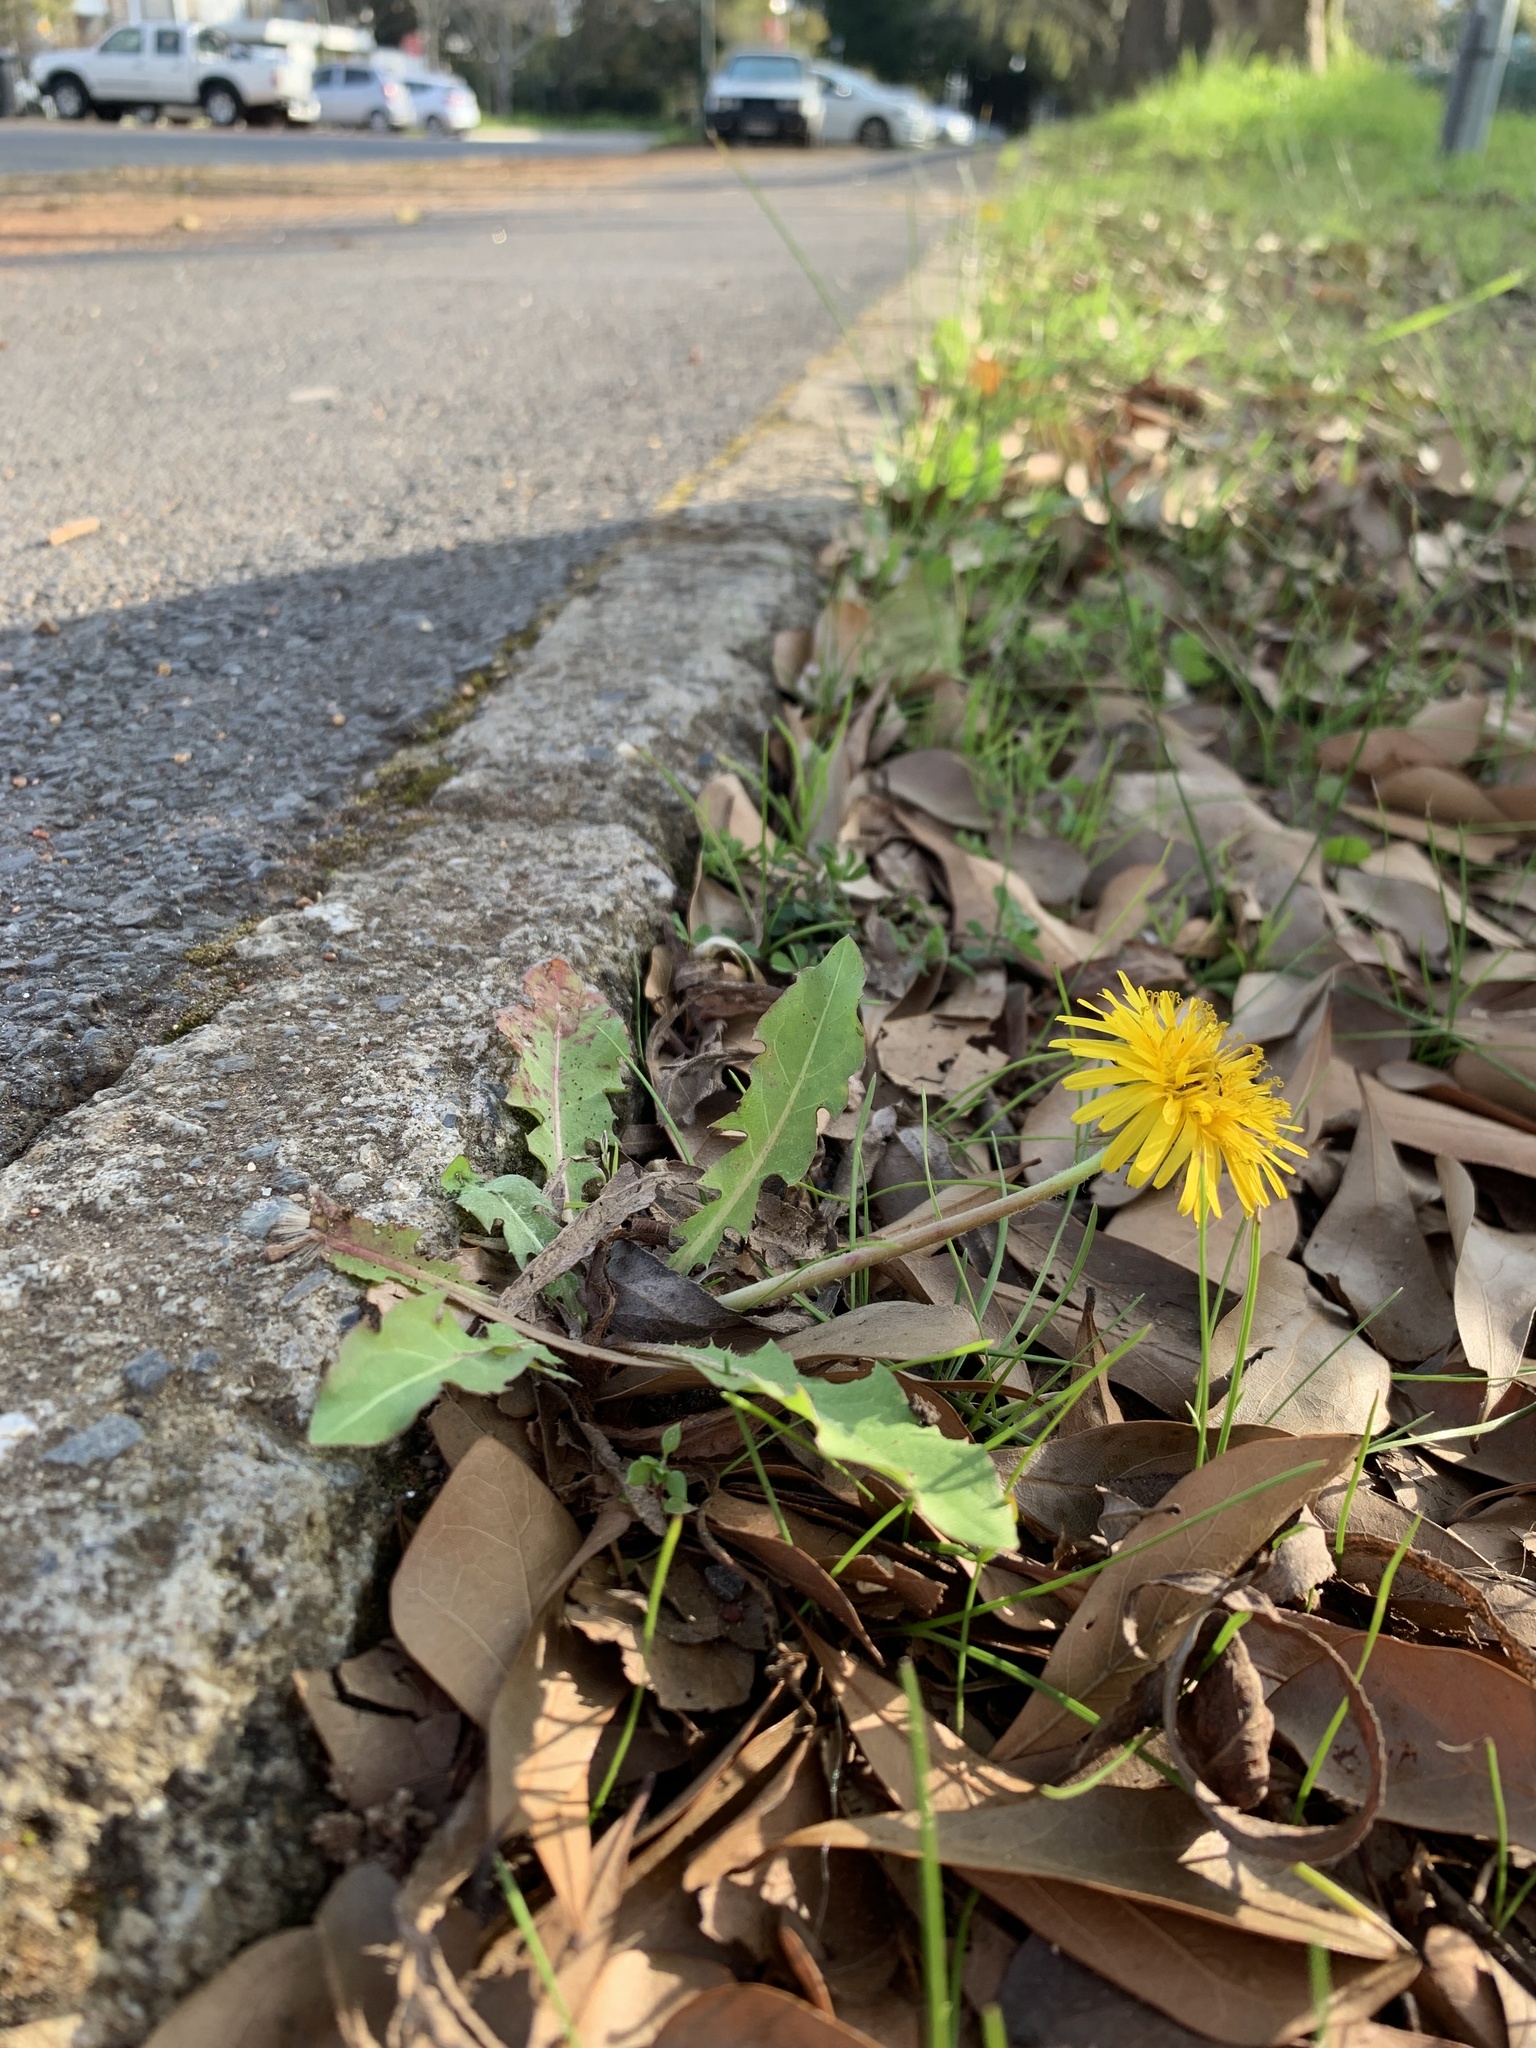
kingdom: Plantae
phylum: Tracheophyta
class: Magnoliopsida
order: Asterales
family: Asteraceae
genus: Taraxacum
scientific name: Taraxacum officinale
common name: Common dandelion
